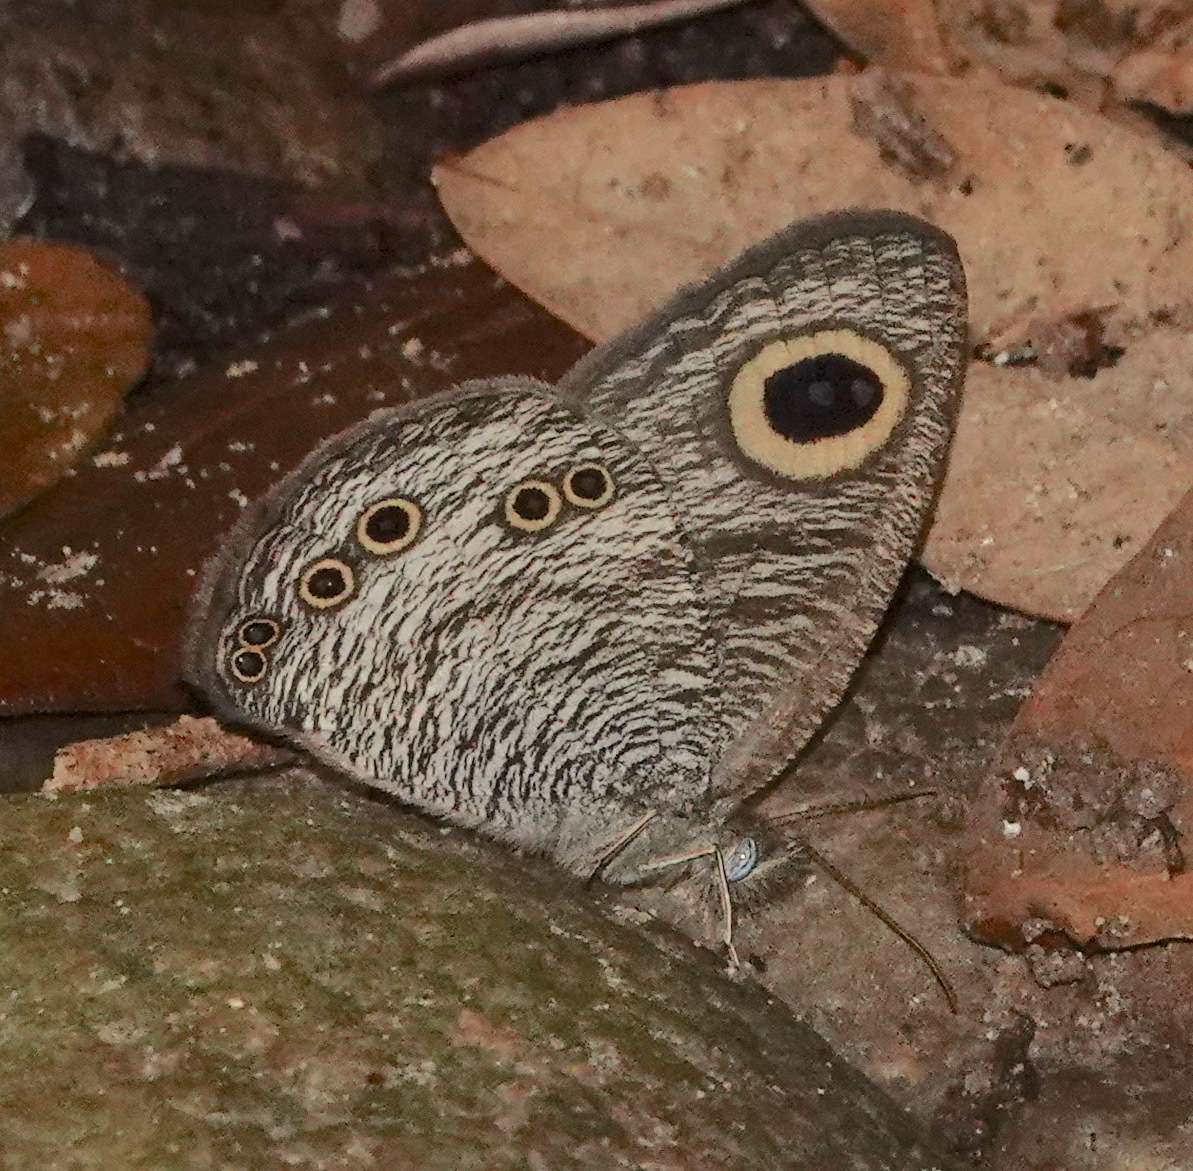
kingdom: Animalia
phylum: Arthropoda
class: Insecta
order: Lepidoptera
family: Nymphalidae
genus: Ypthima
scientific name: Ypthima baldus
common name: Common five-ring
